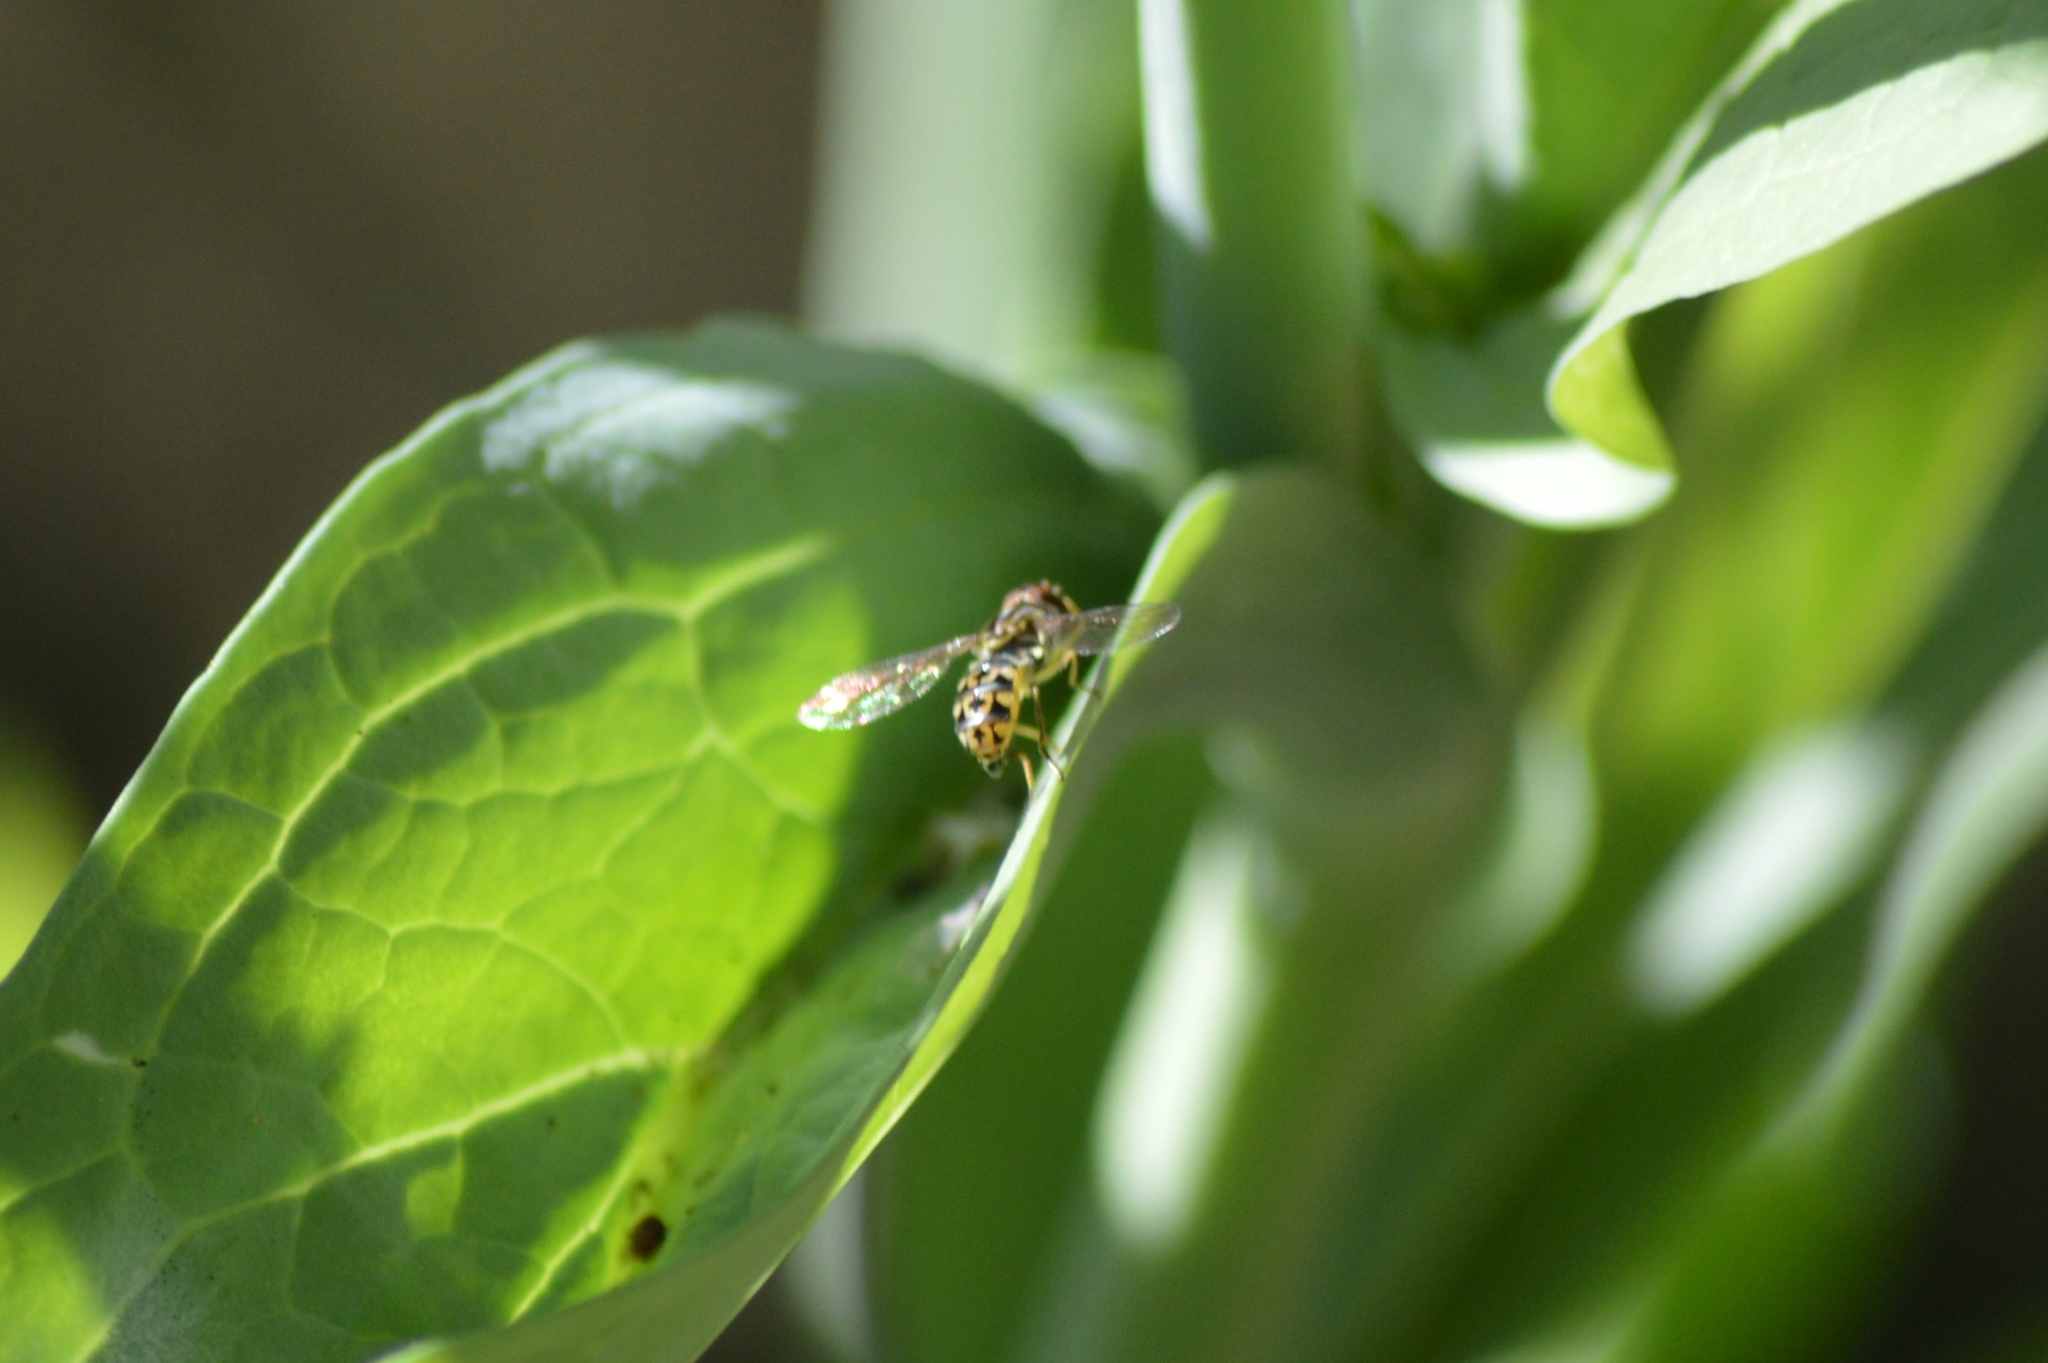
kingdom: Animalia
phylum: Arthropoda
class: Insecta
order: Diptera
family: Syrphidae
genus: Toxomerus
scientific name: Toxomerus virgulatus
